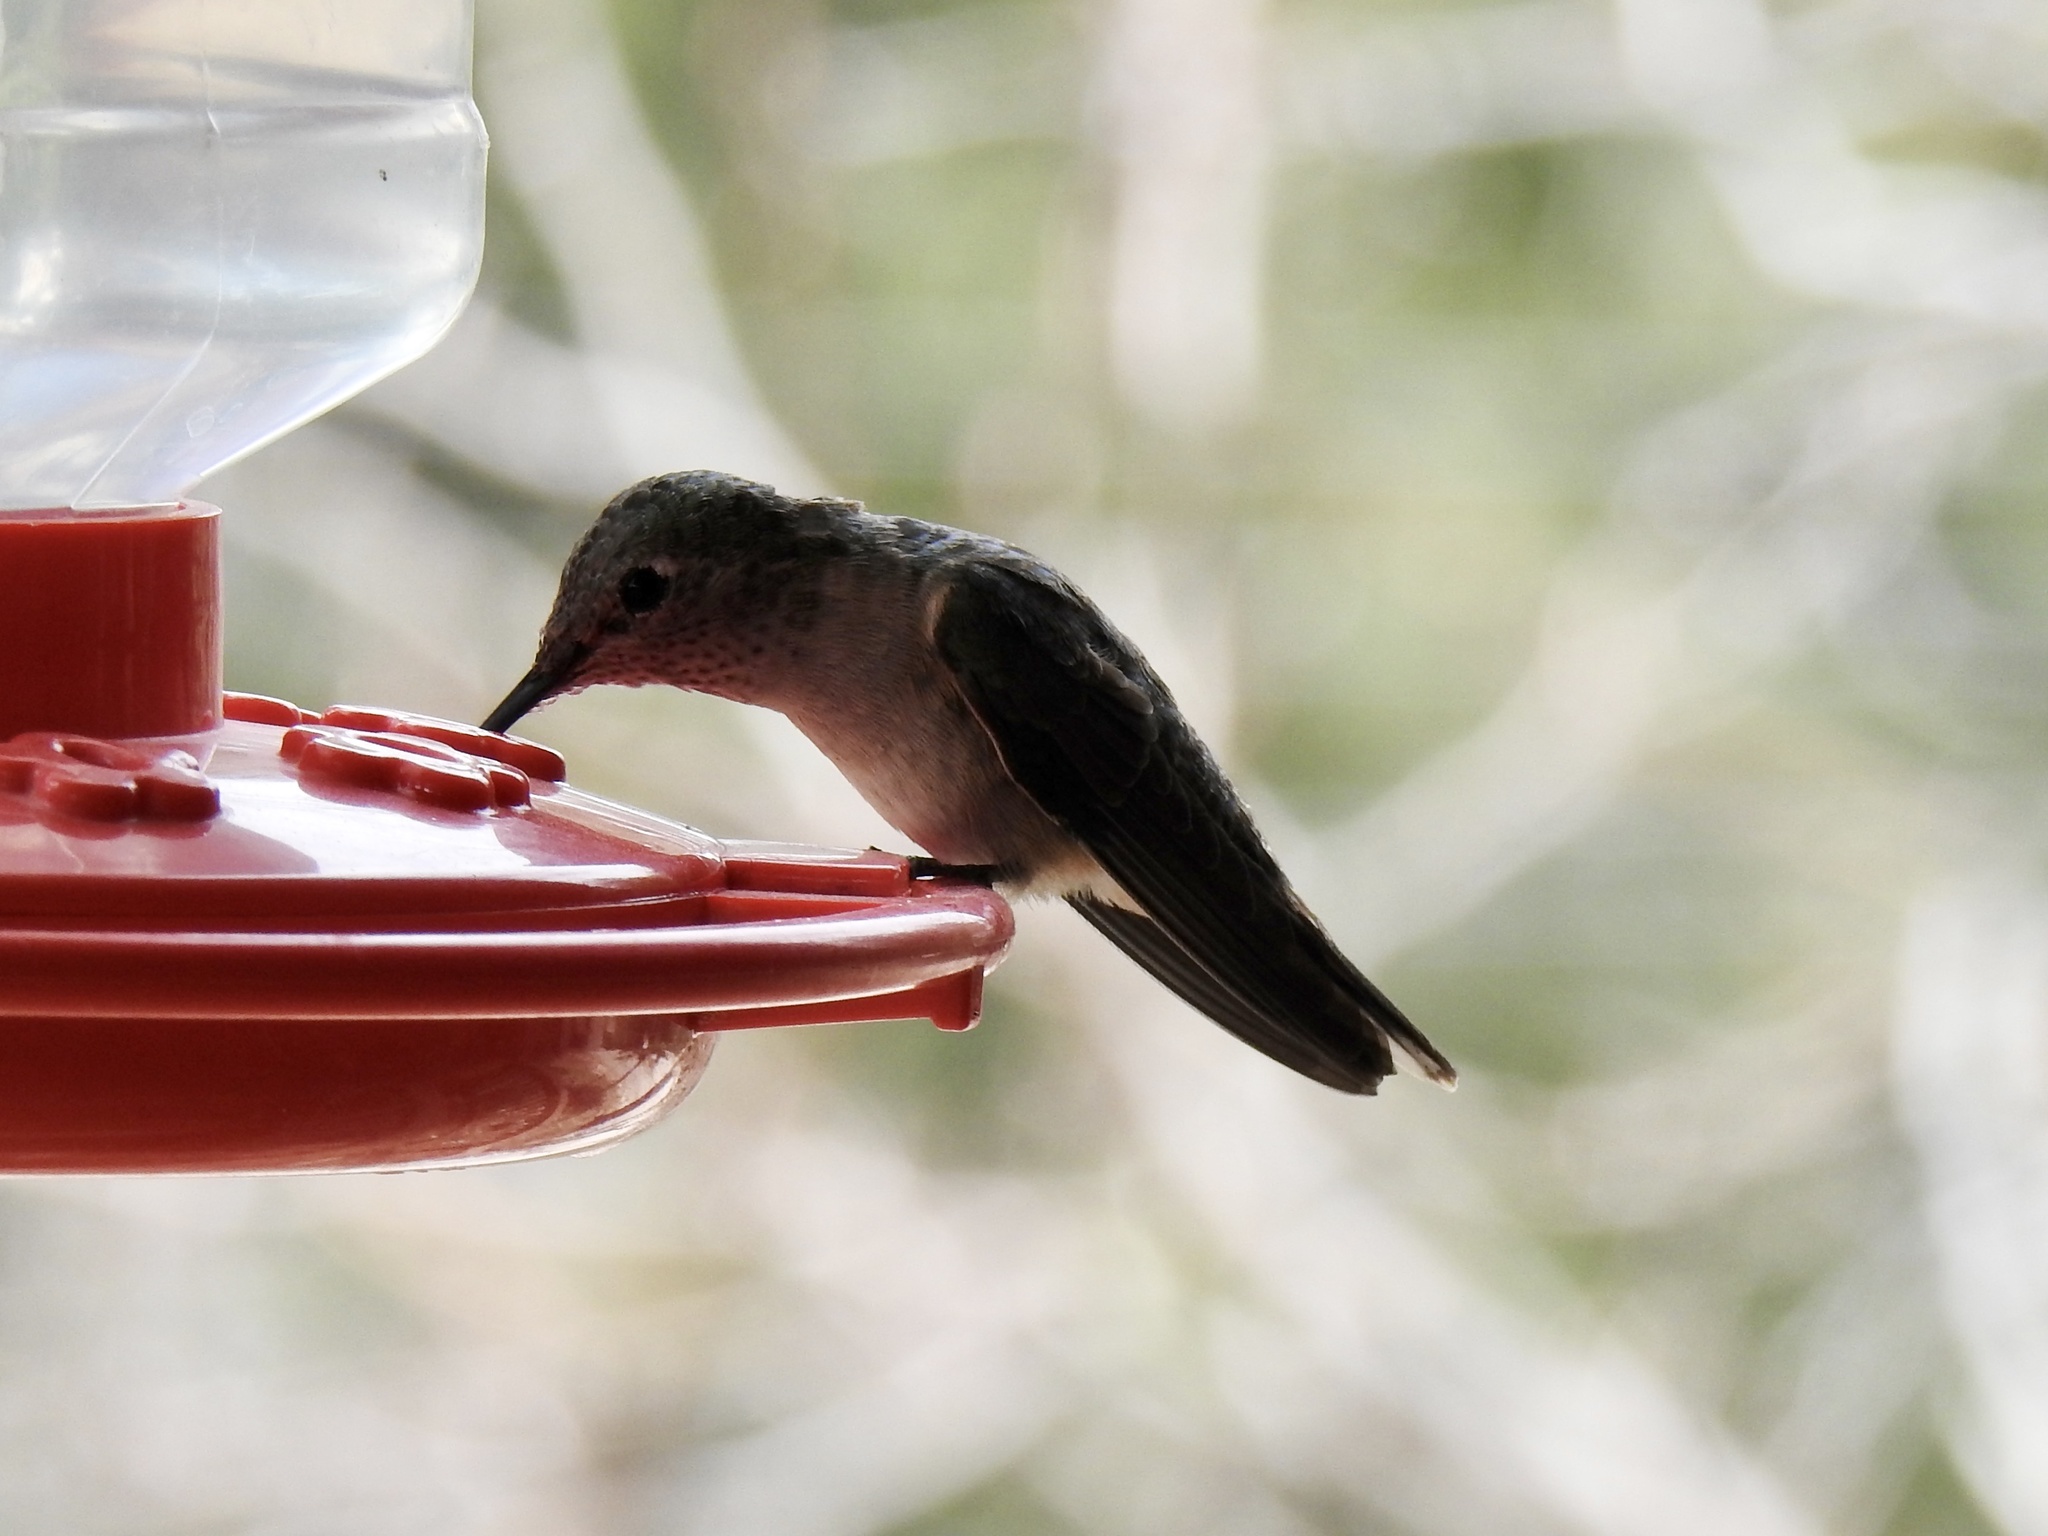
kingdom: Animalia
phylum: Chordata
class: Aves
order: Apodiformes
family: Trochilidae
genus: Selasphorus
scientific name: Selasphorus platycercus
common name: Broad-tailed hummingbird
